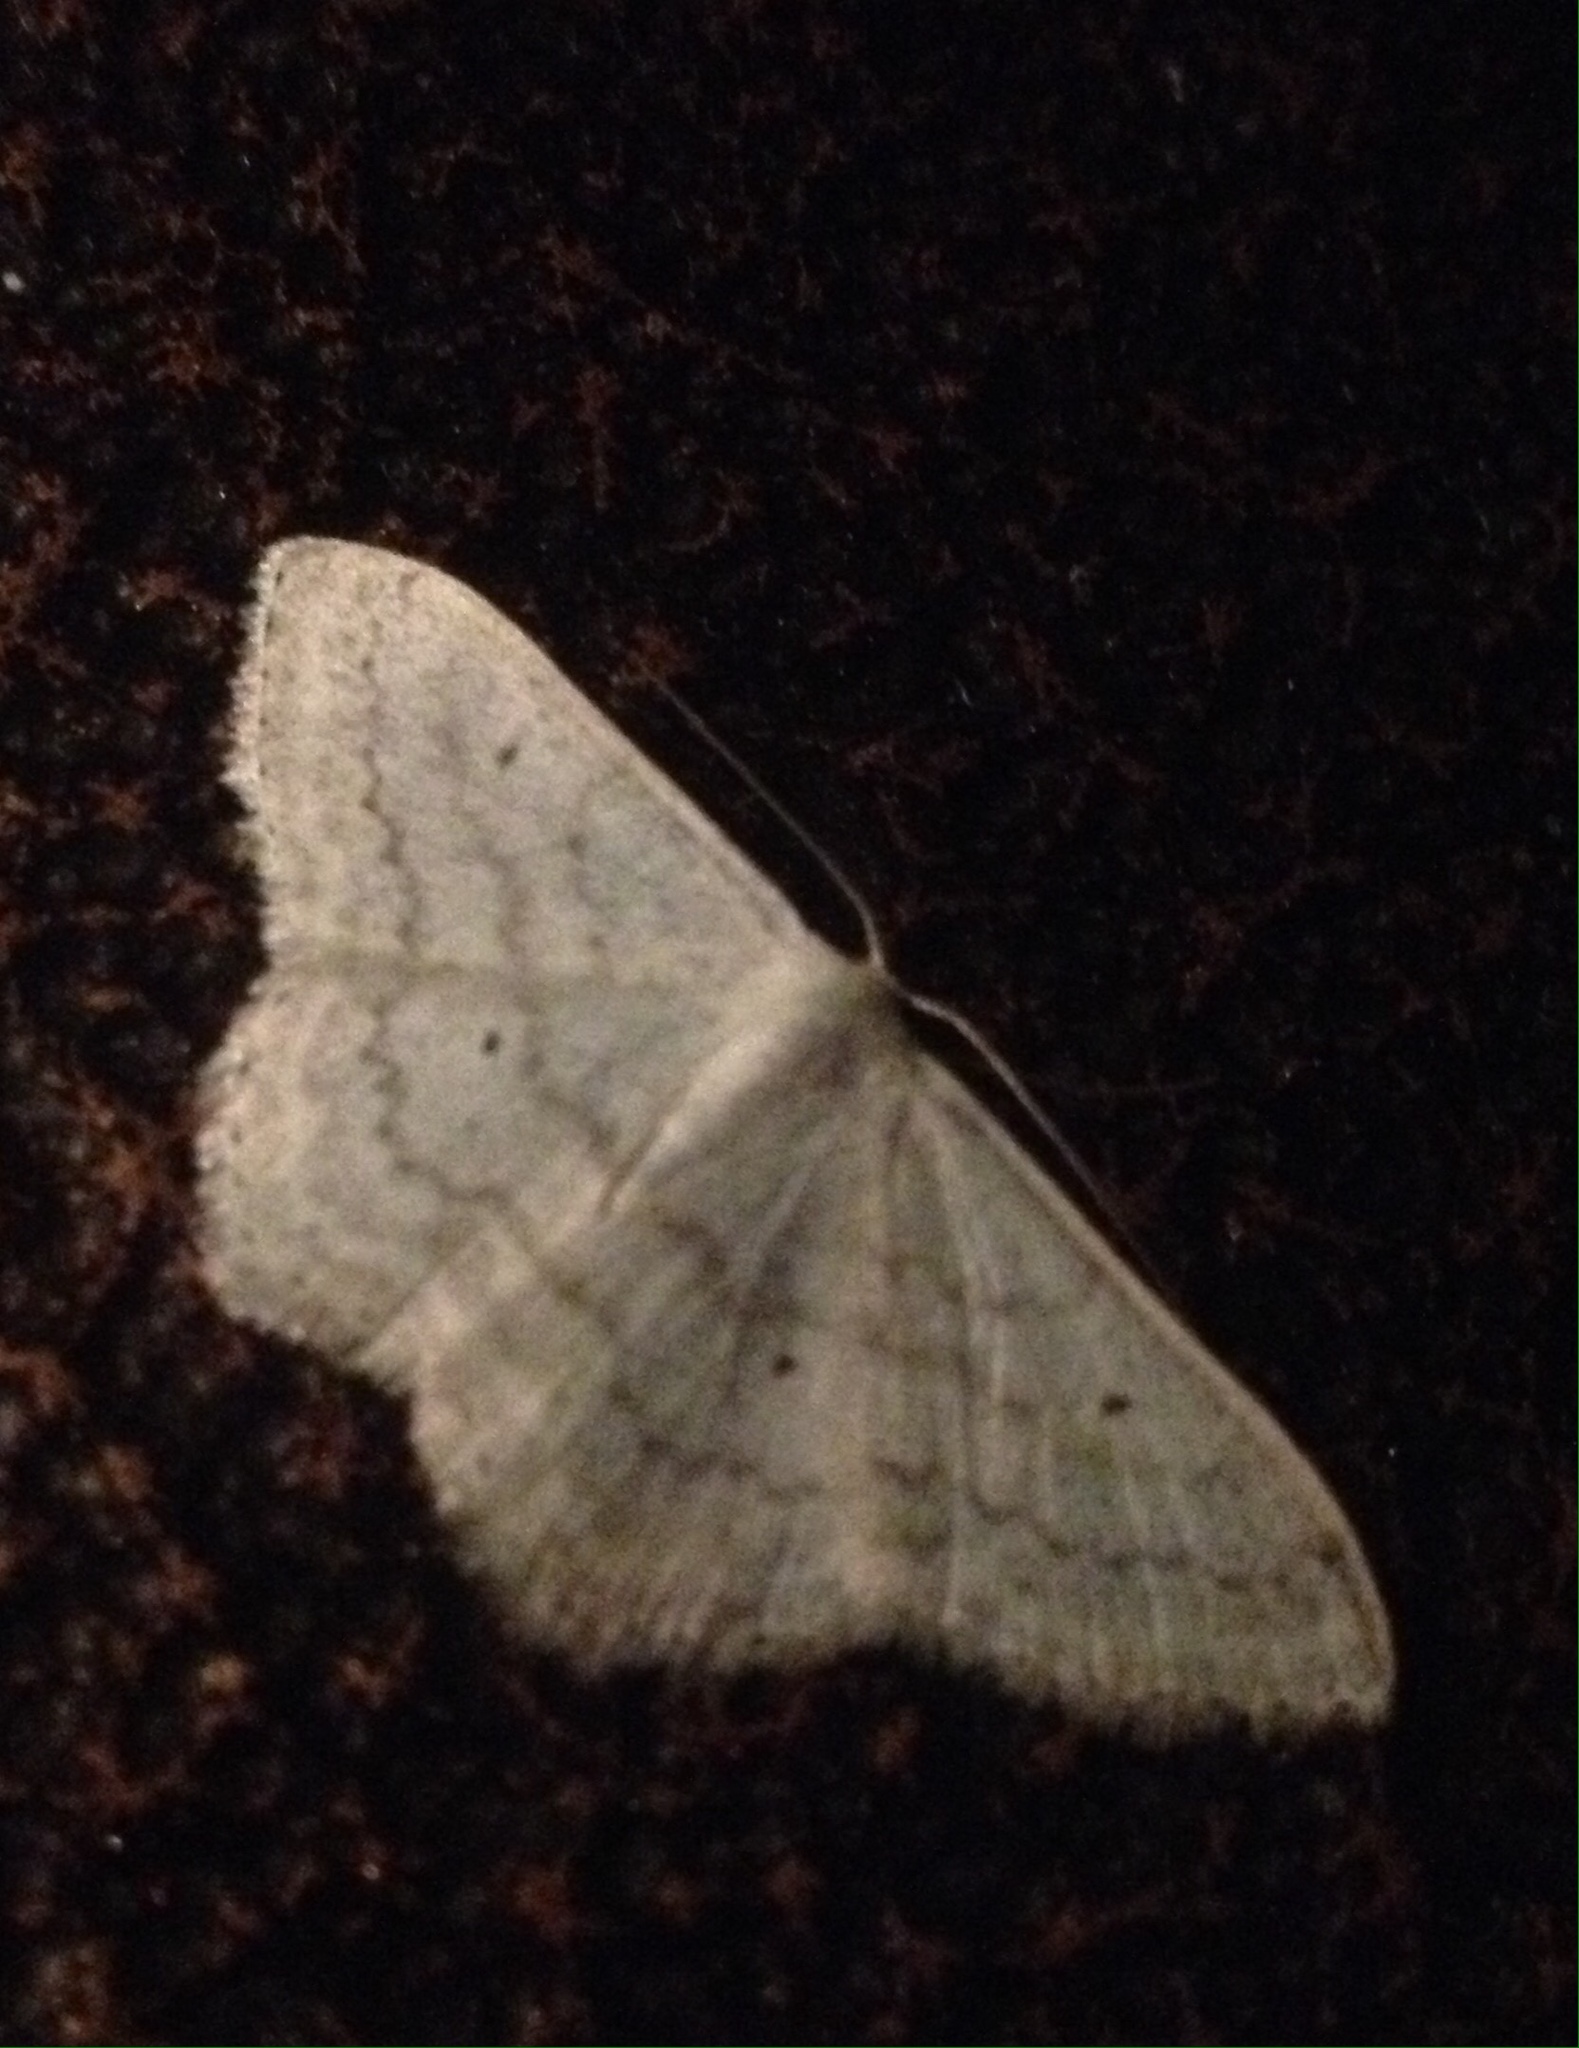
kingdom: Animalia
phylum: Arthropoda
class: Insecta
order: Lepidoptera
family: Geometridae
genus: Scopula
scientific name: Scopula incanata
